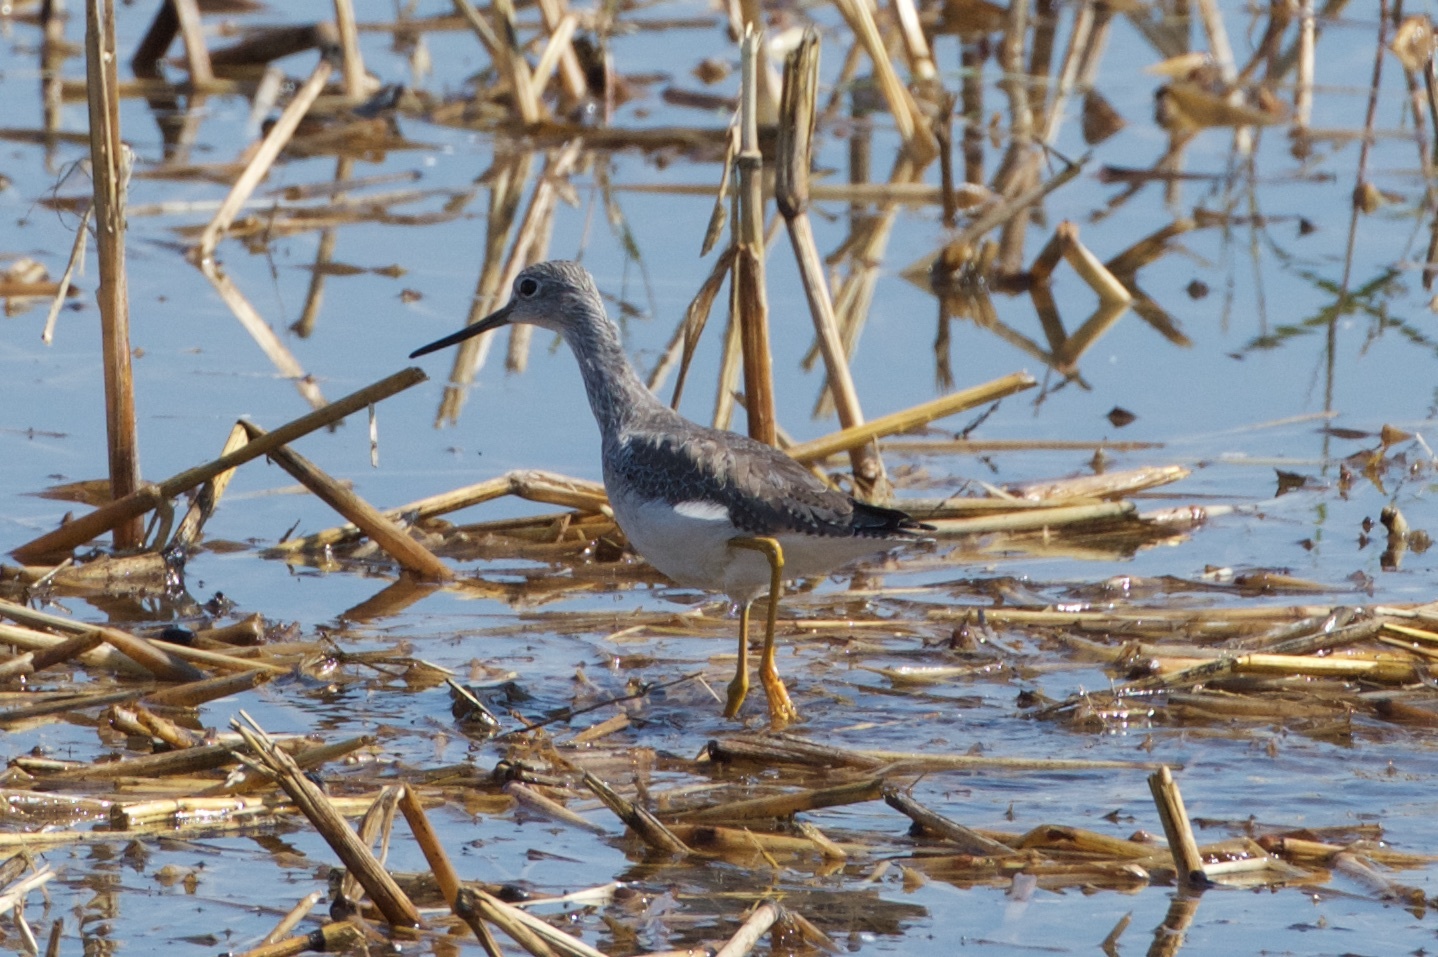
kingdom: Animalia
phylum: Chordata
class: Aves
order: Charadriiformes
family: Scolopacidae
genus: Tringa
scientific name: Tringa melanoleuca
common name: Greater yellowlegs
